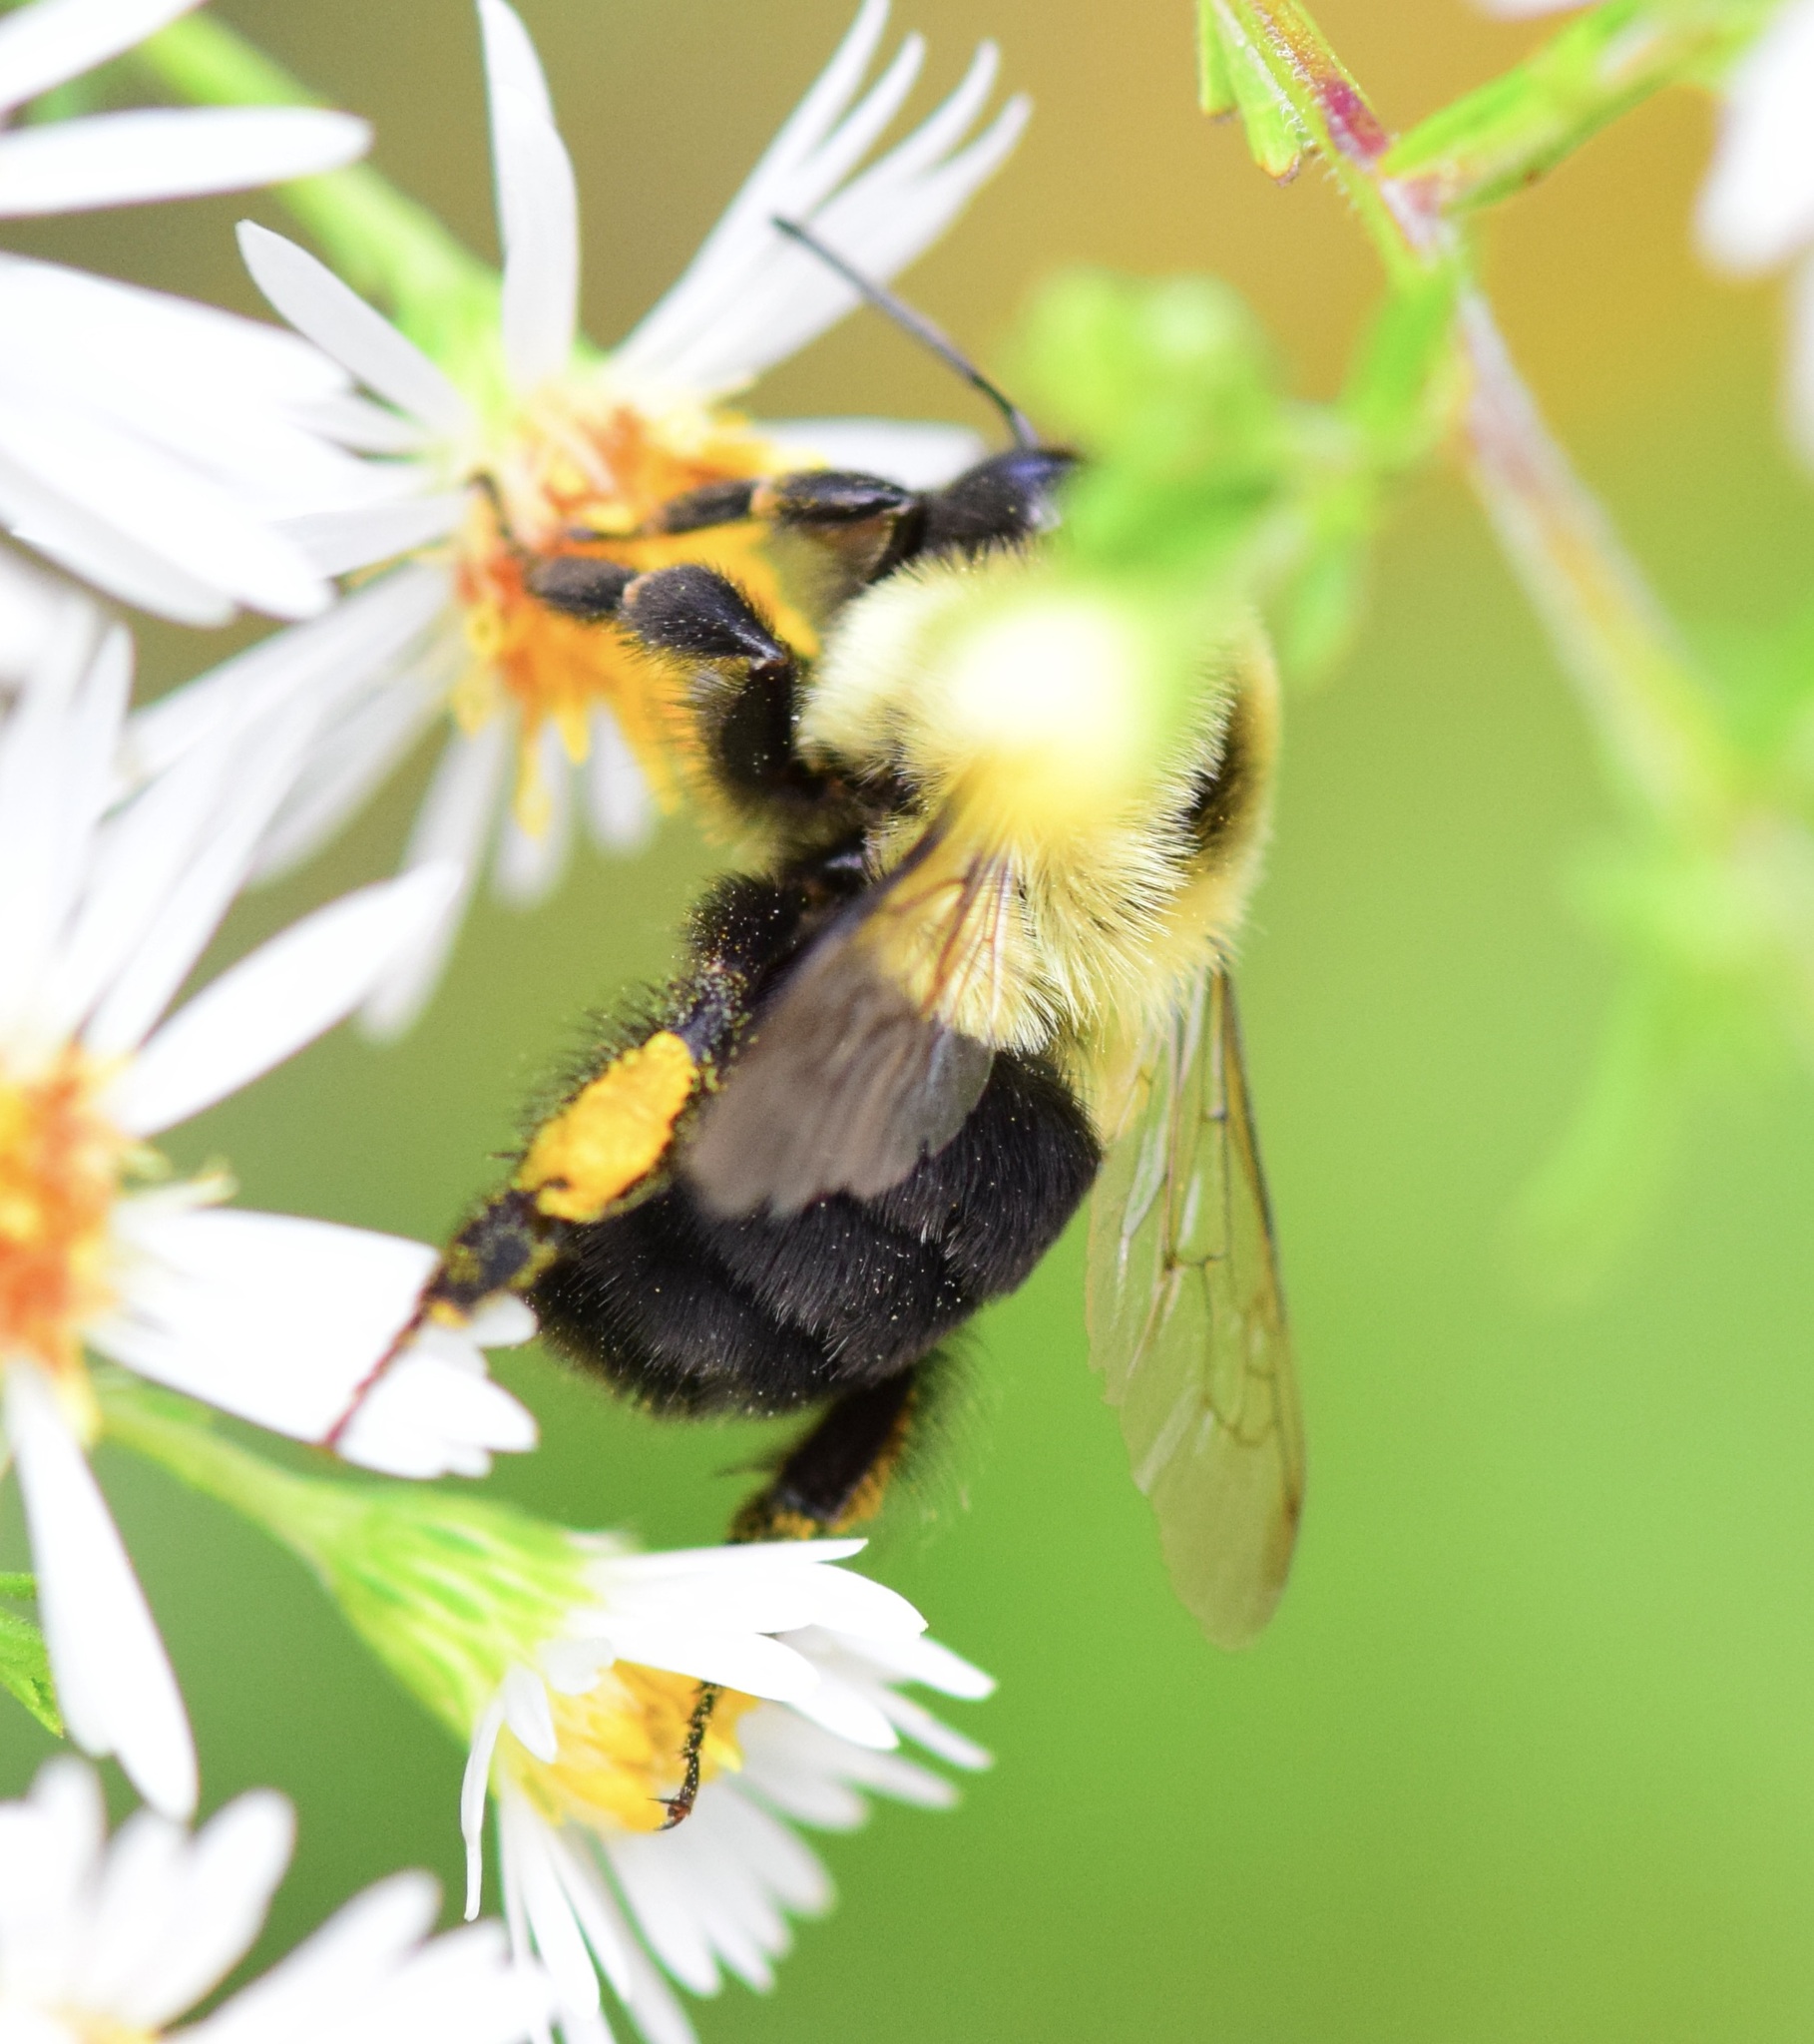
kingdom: Animalia
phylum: Arthropoda
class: Insecta
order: Hymenoptera
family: Apidae
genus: Bombus
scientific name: Bombus impatiens
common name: Common eastern bumble bee
